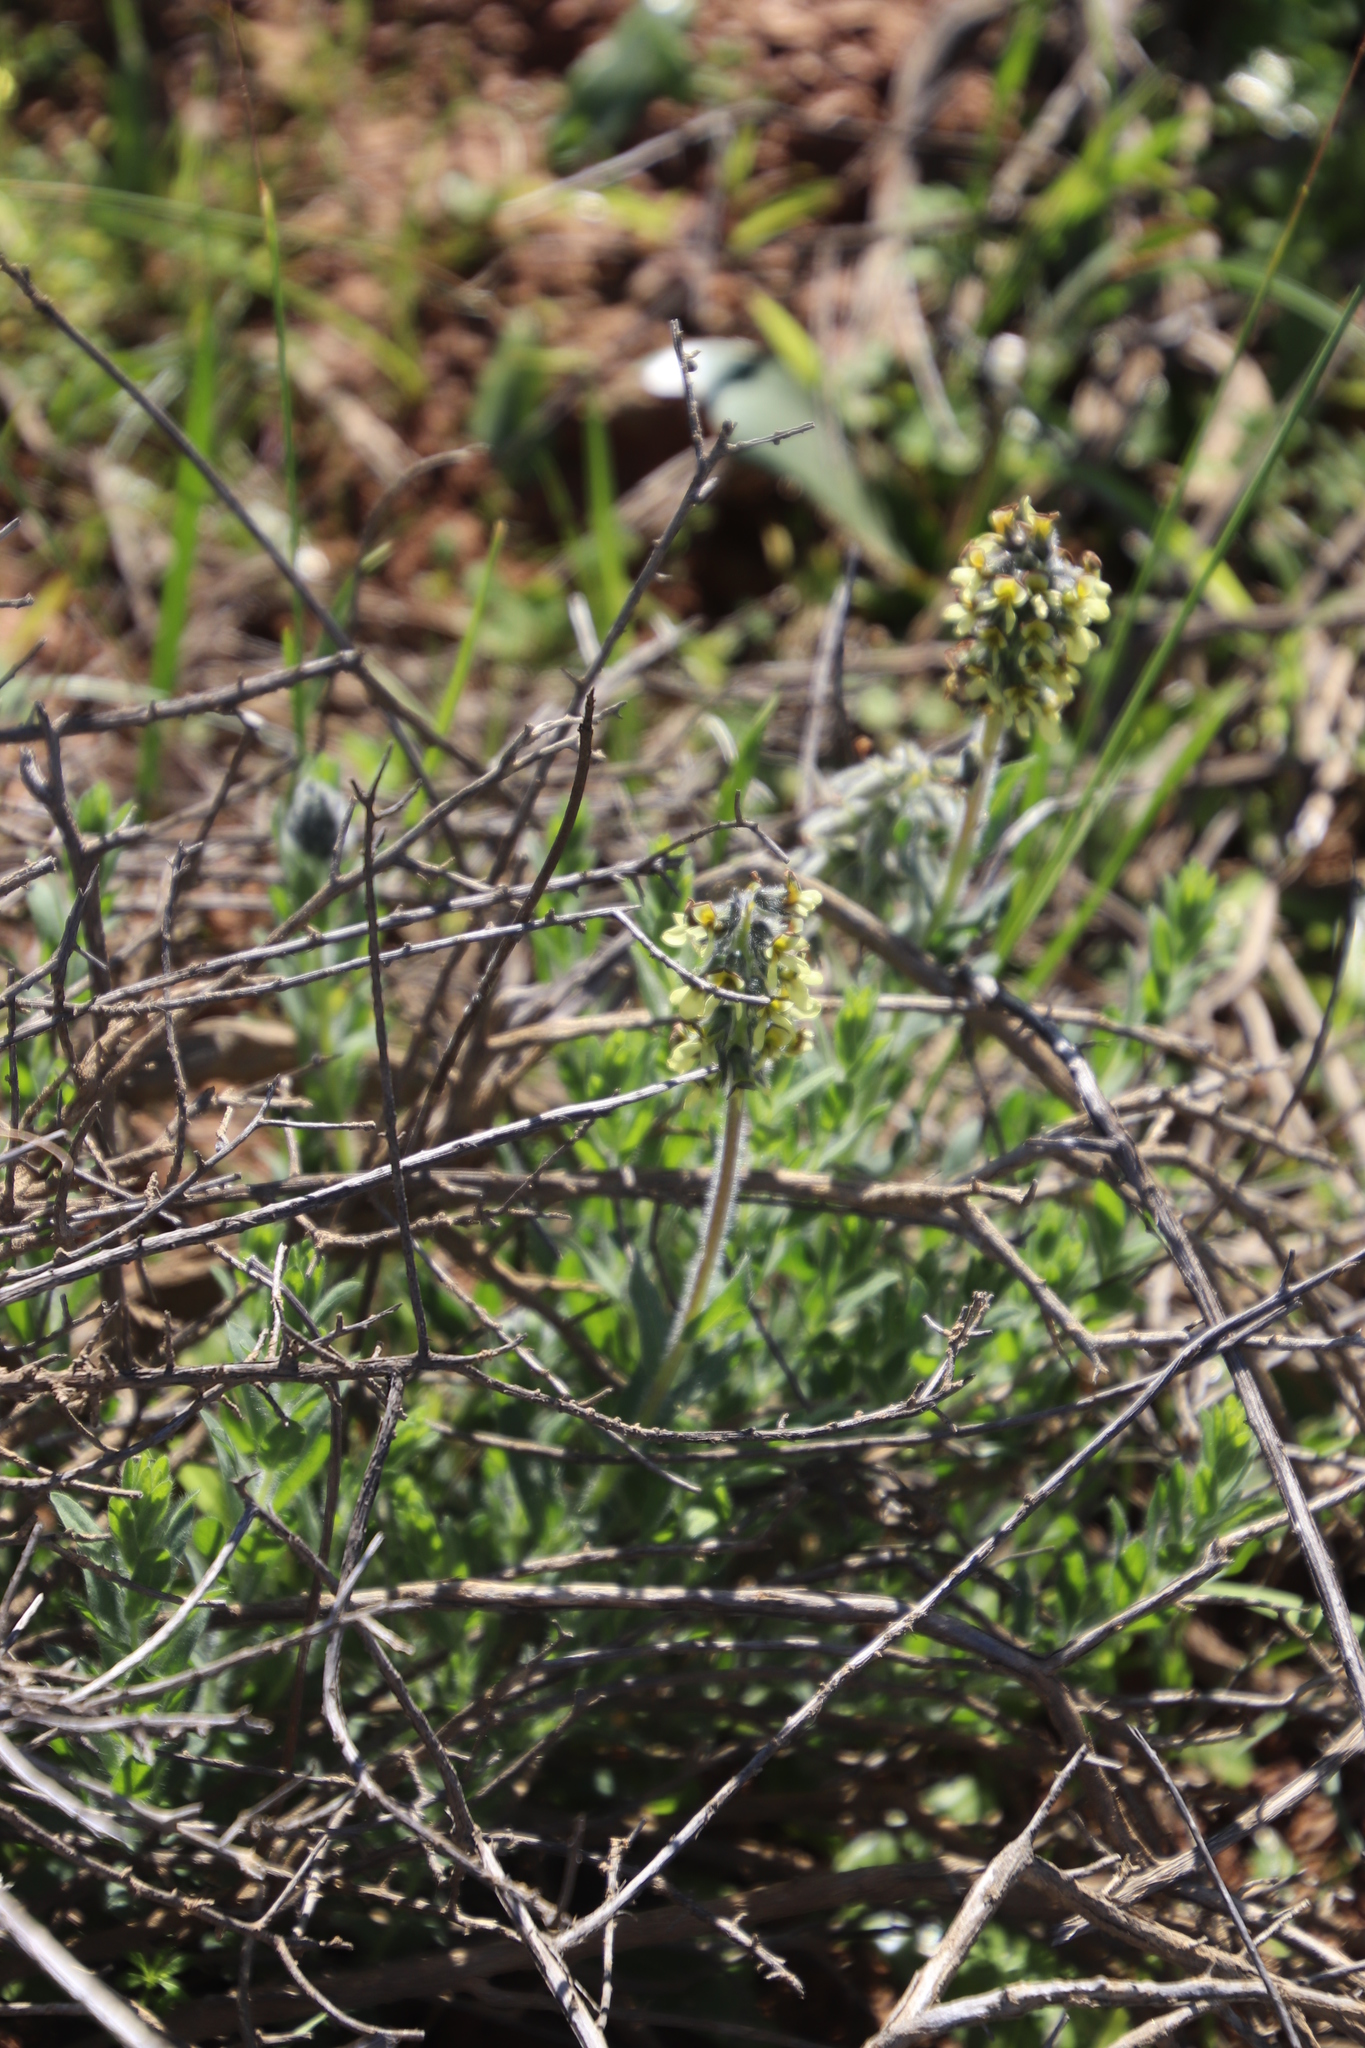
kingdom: Plantae
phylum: Tracheophyta
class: Magnoliopsida
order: Fabales
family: Fabaceae
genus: Euchlora
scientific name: Euchlora hirsuta
